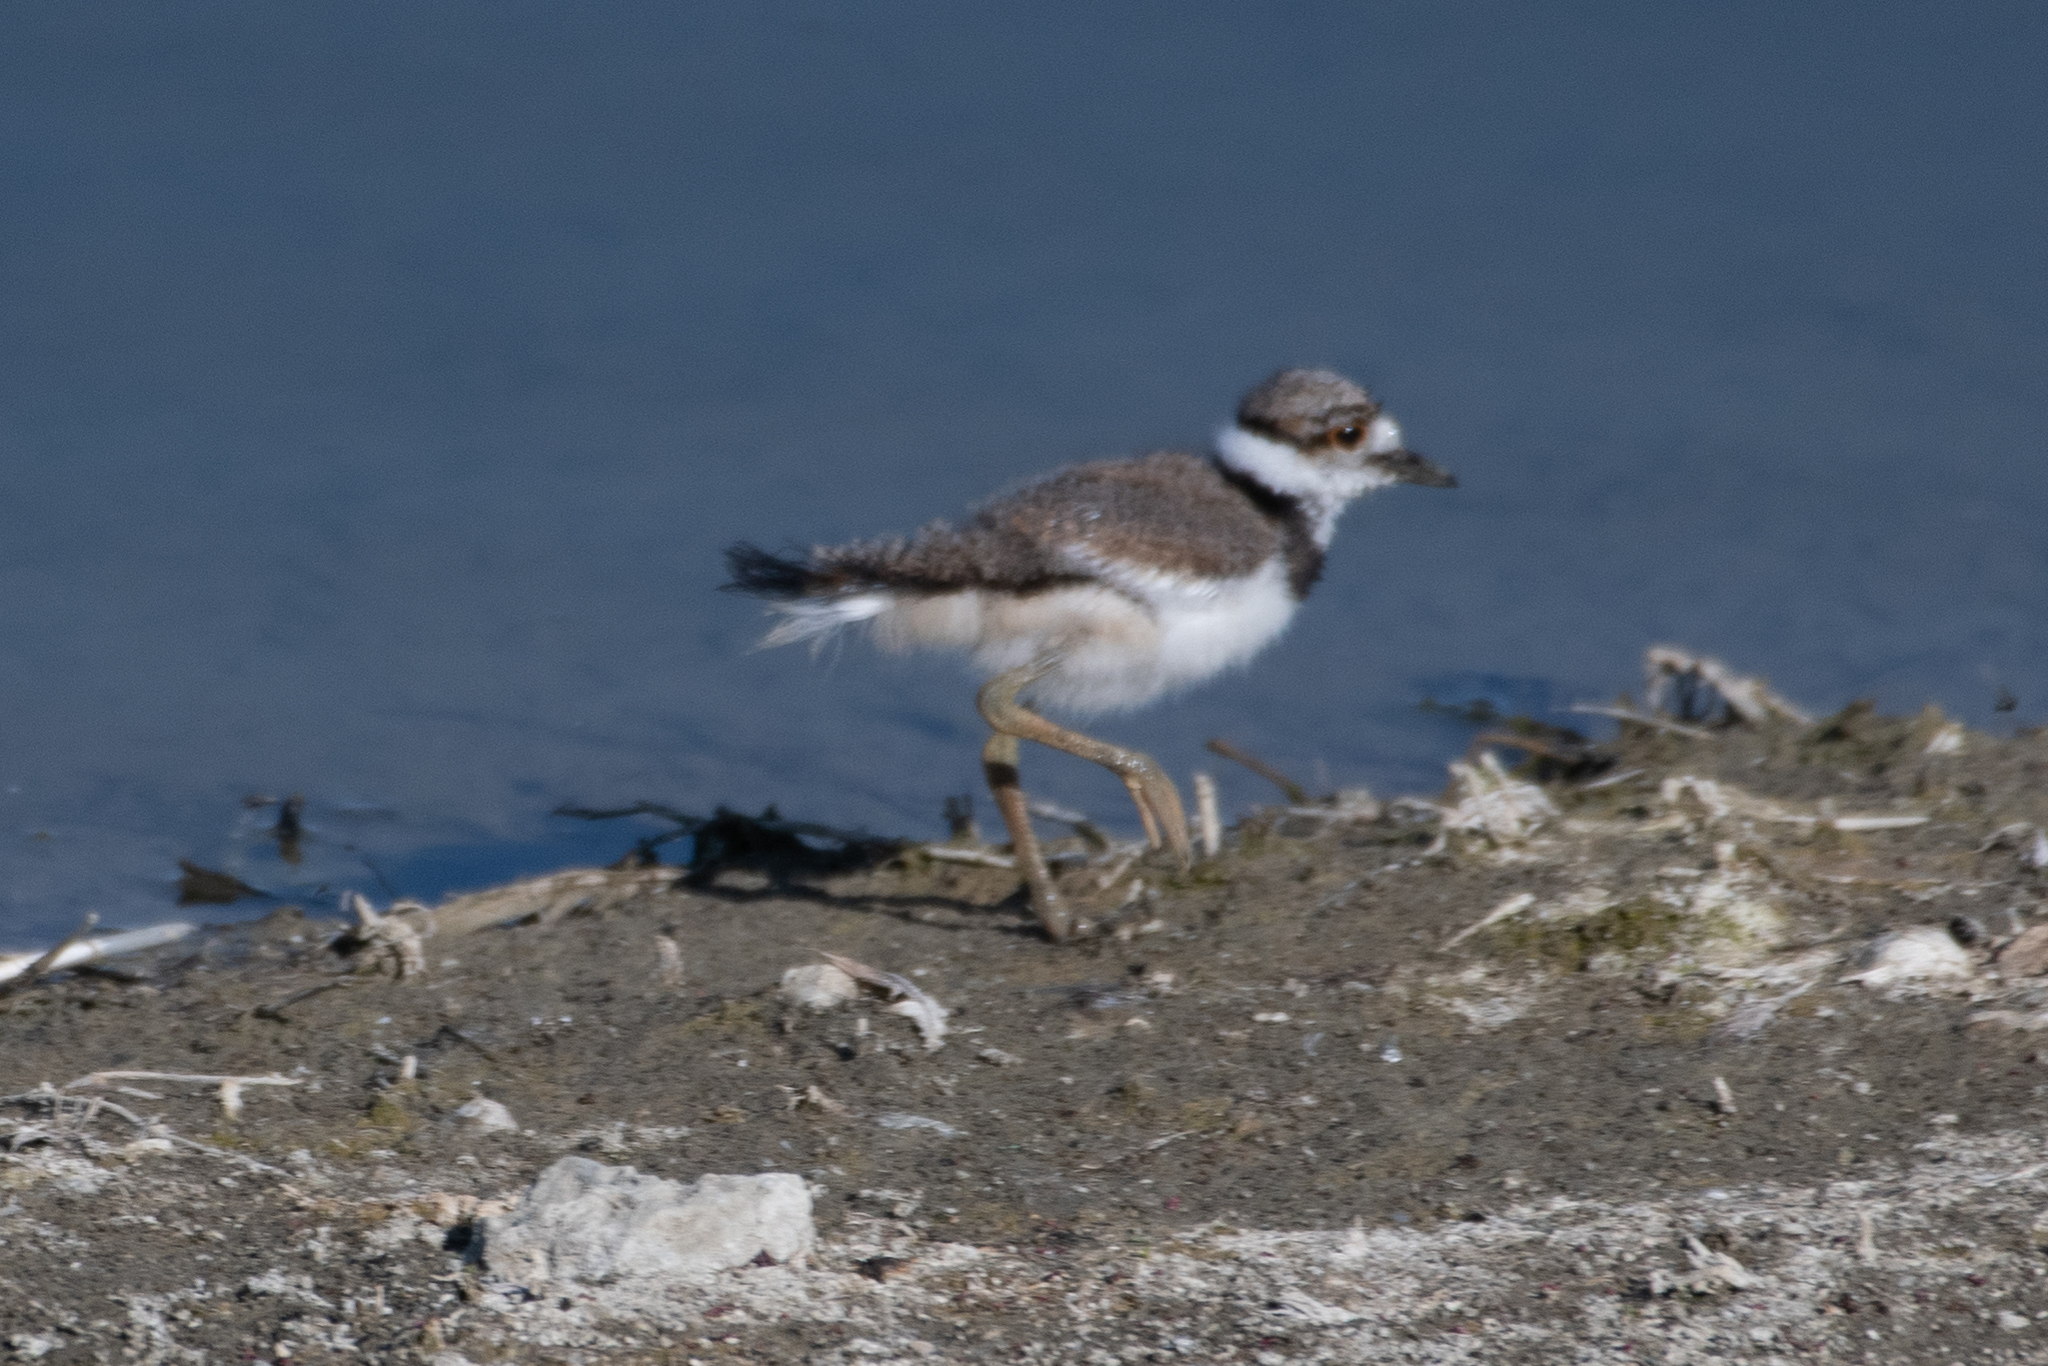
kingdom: Animalia
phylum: Chordata
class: Aves
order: Charadriiformes
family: Charadriidae
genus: Charadrius
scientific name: Charadrius vociferus
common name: Killdeer
